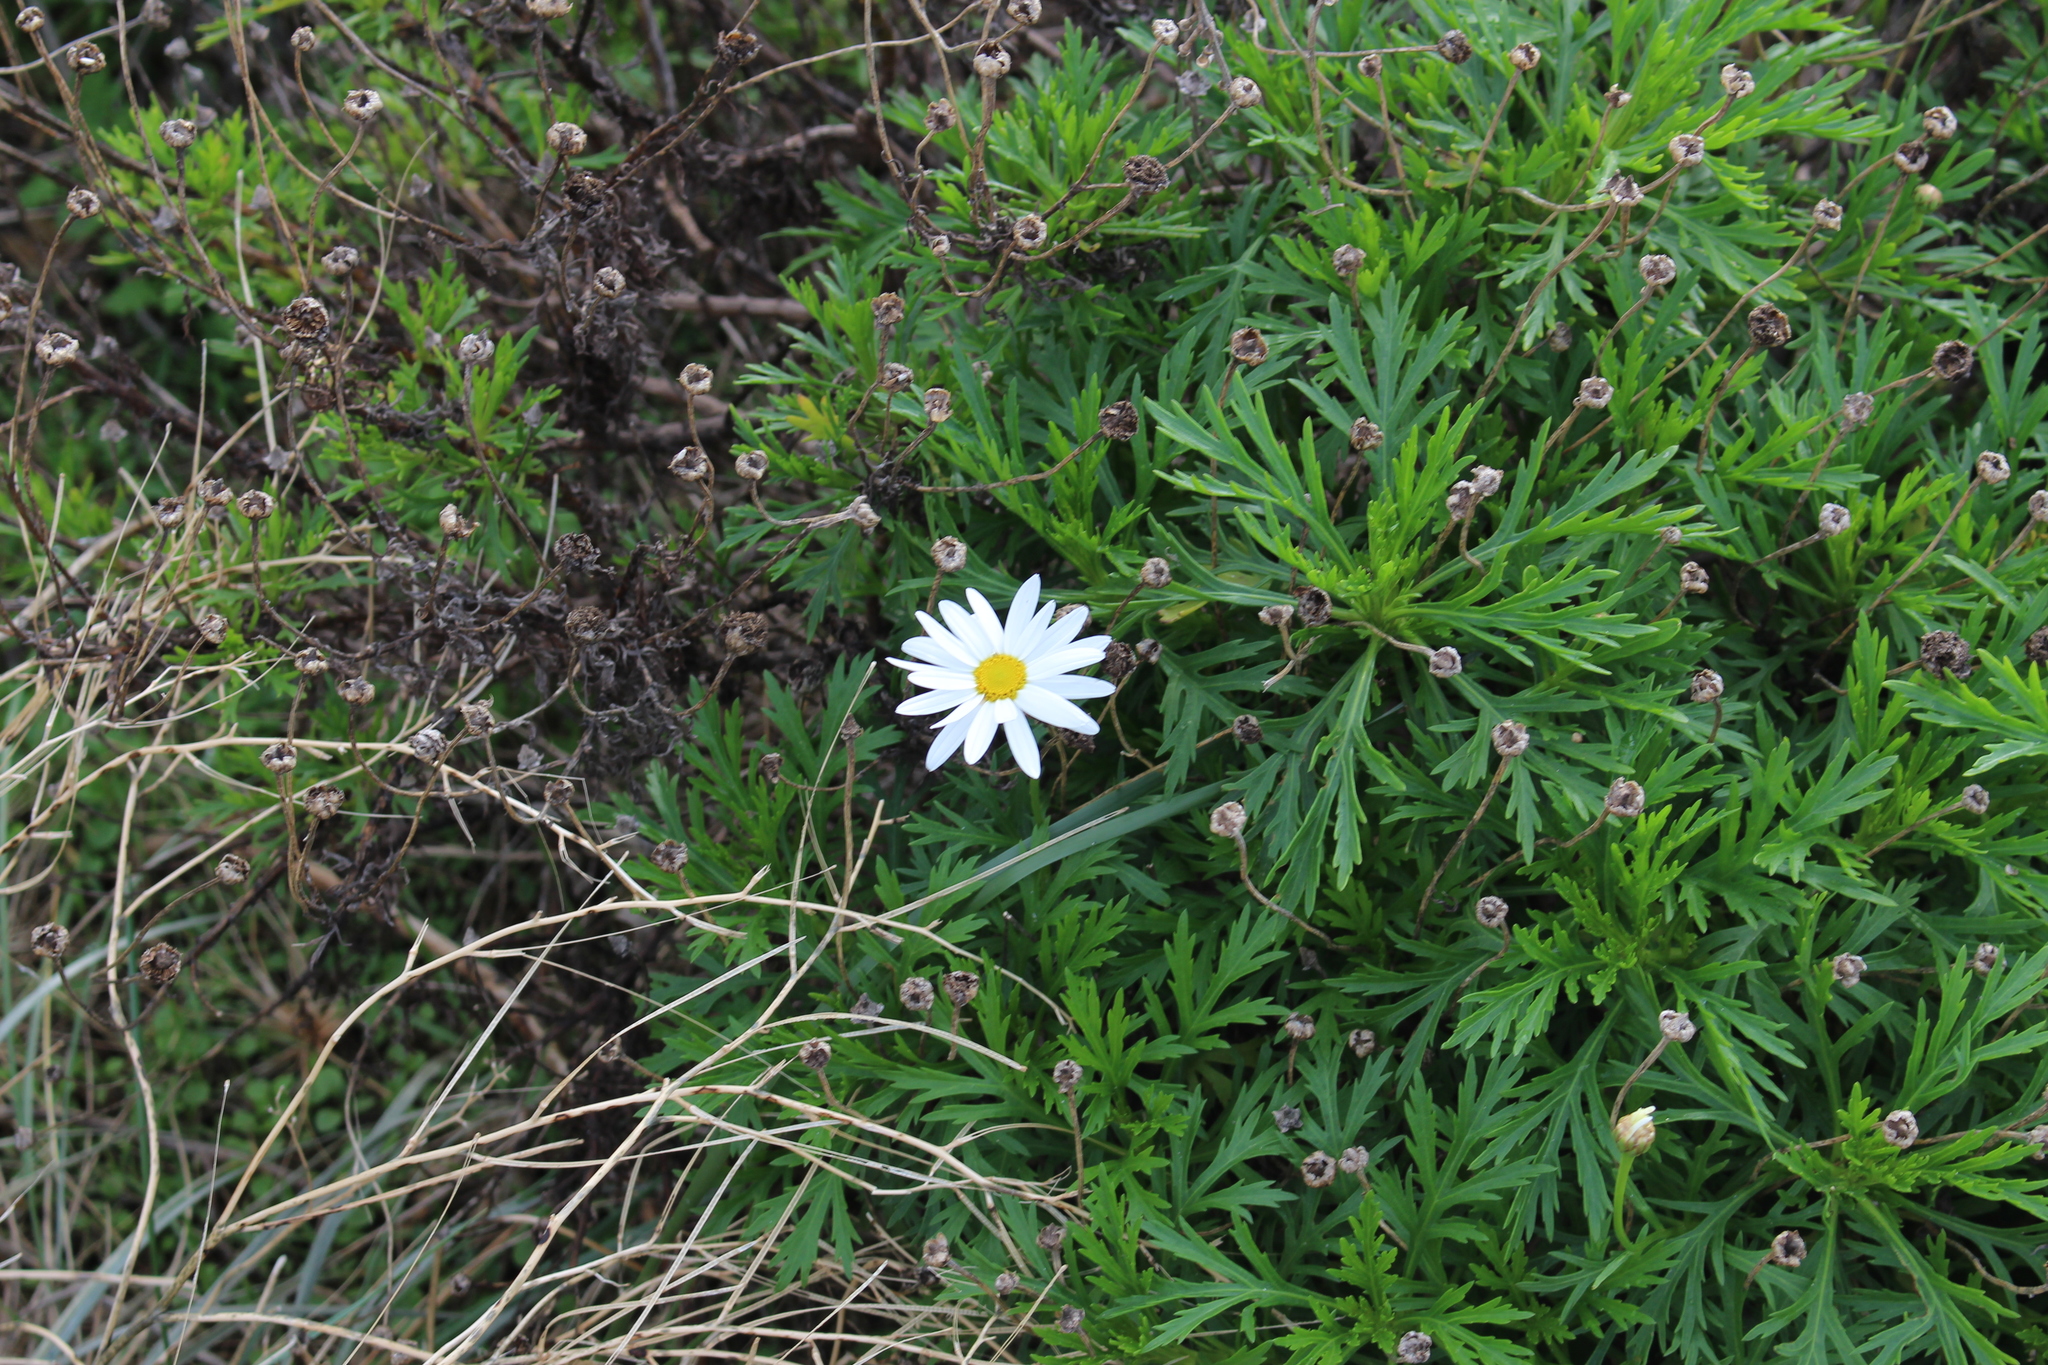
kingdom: Plantae
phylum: Tracheophyta
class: Magnoliopsida
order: Asterales
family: Asteraceae
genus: Argyranthemum
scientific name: Argyranthemum frutescens
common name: Paris daisy
